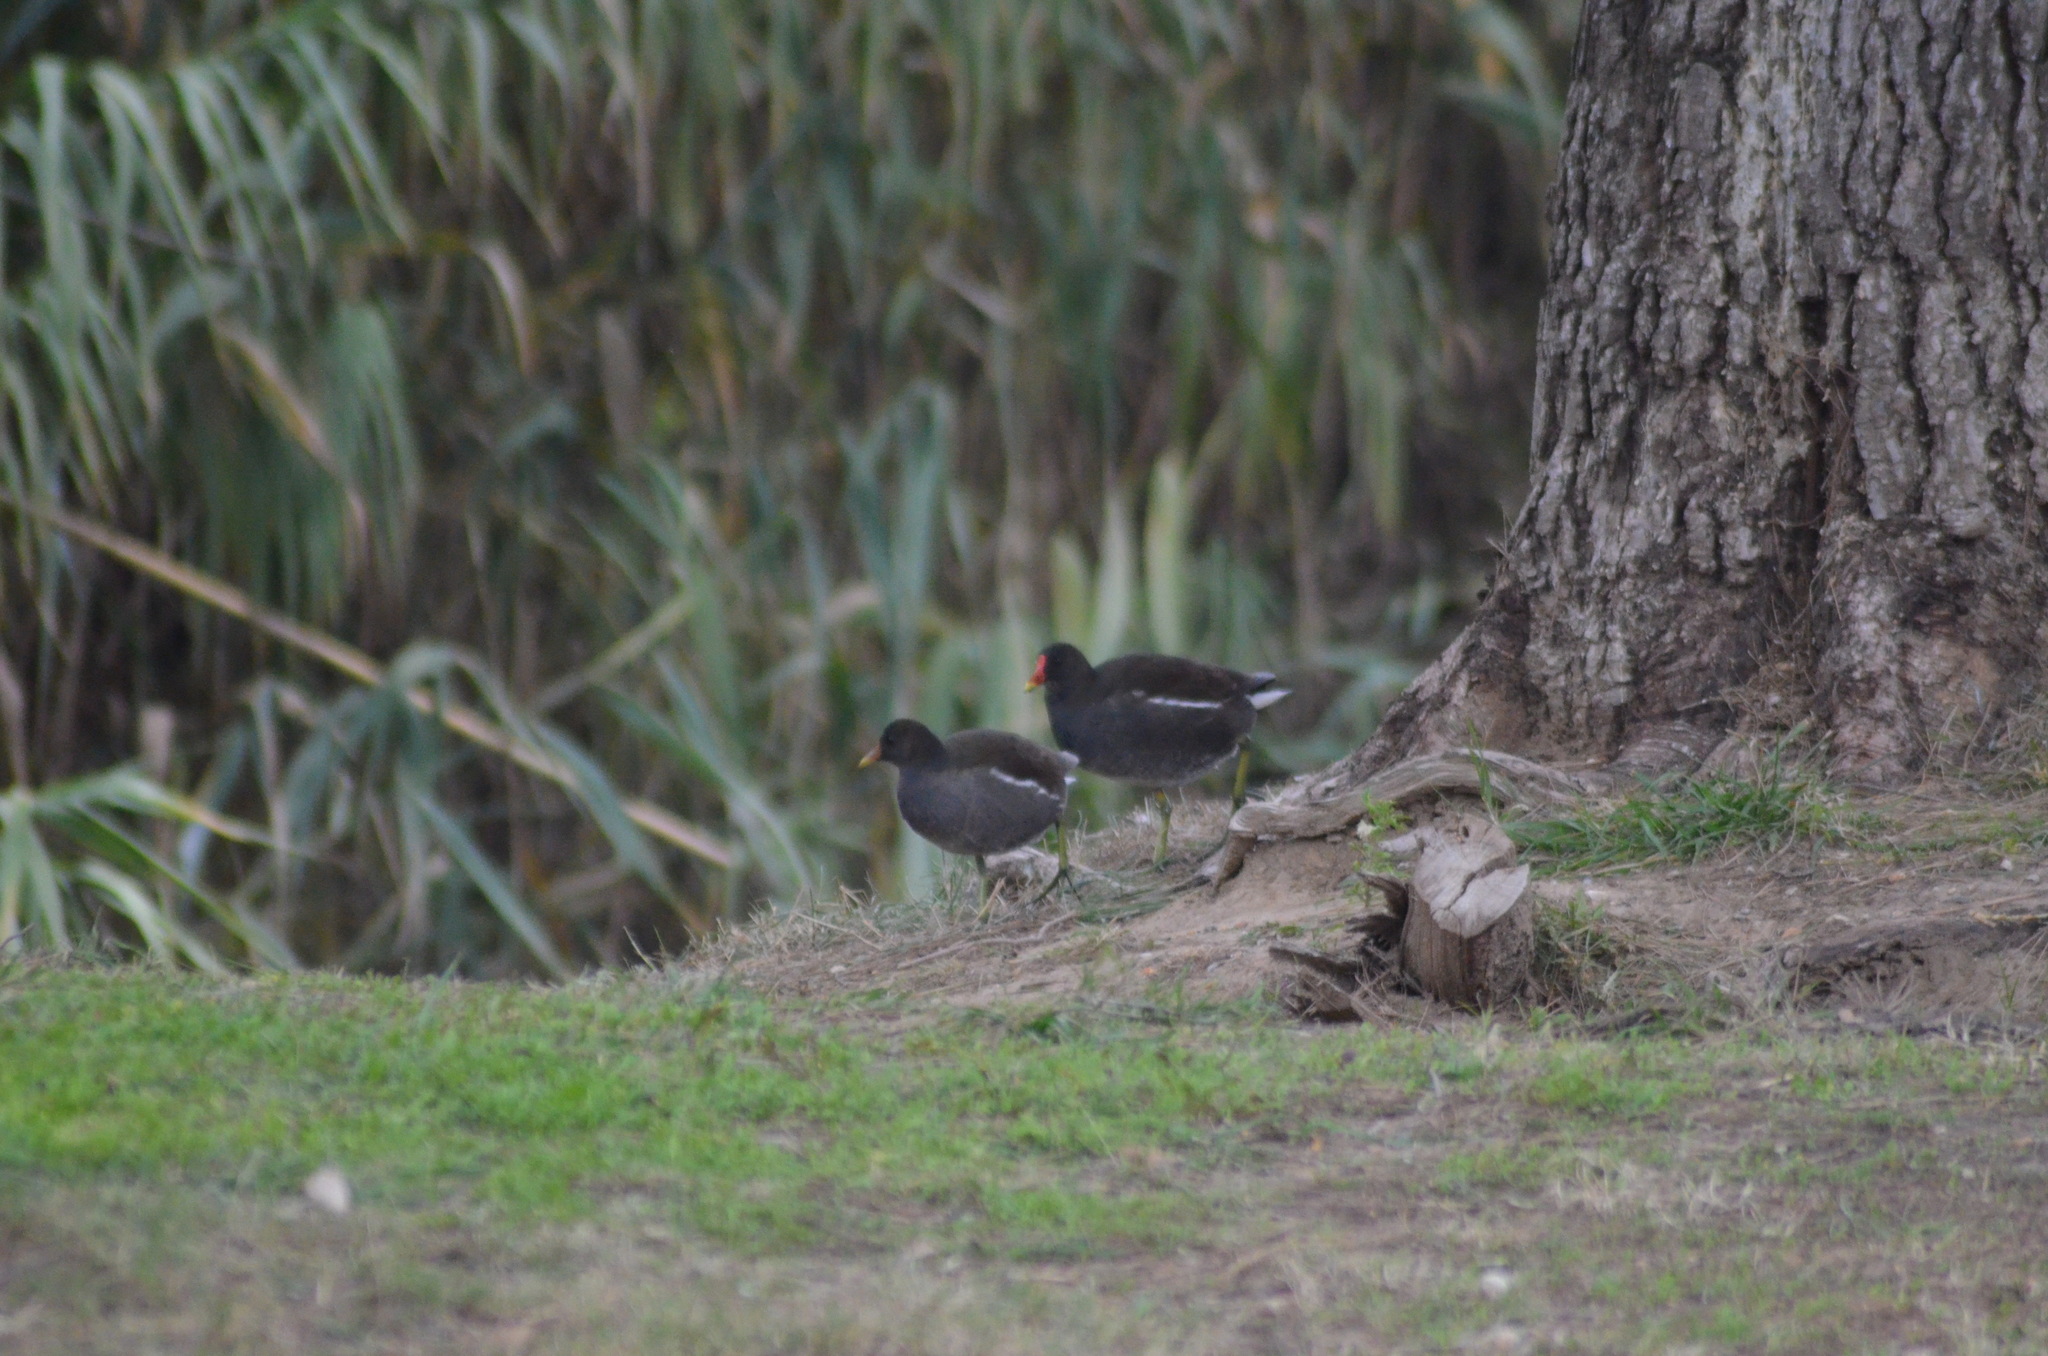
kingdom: Animalia
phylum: Chordata
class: Aves
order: Gruiformes
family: Rallidae
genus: Gallinula
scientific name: Gallinula chloropus
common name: Common moorhen
